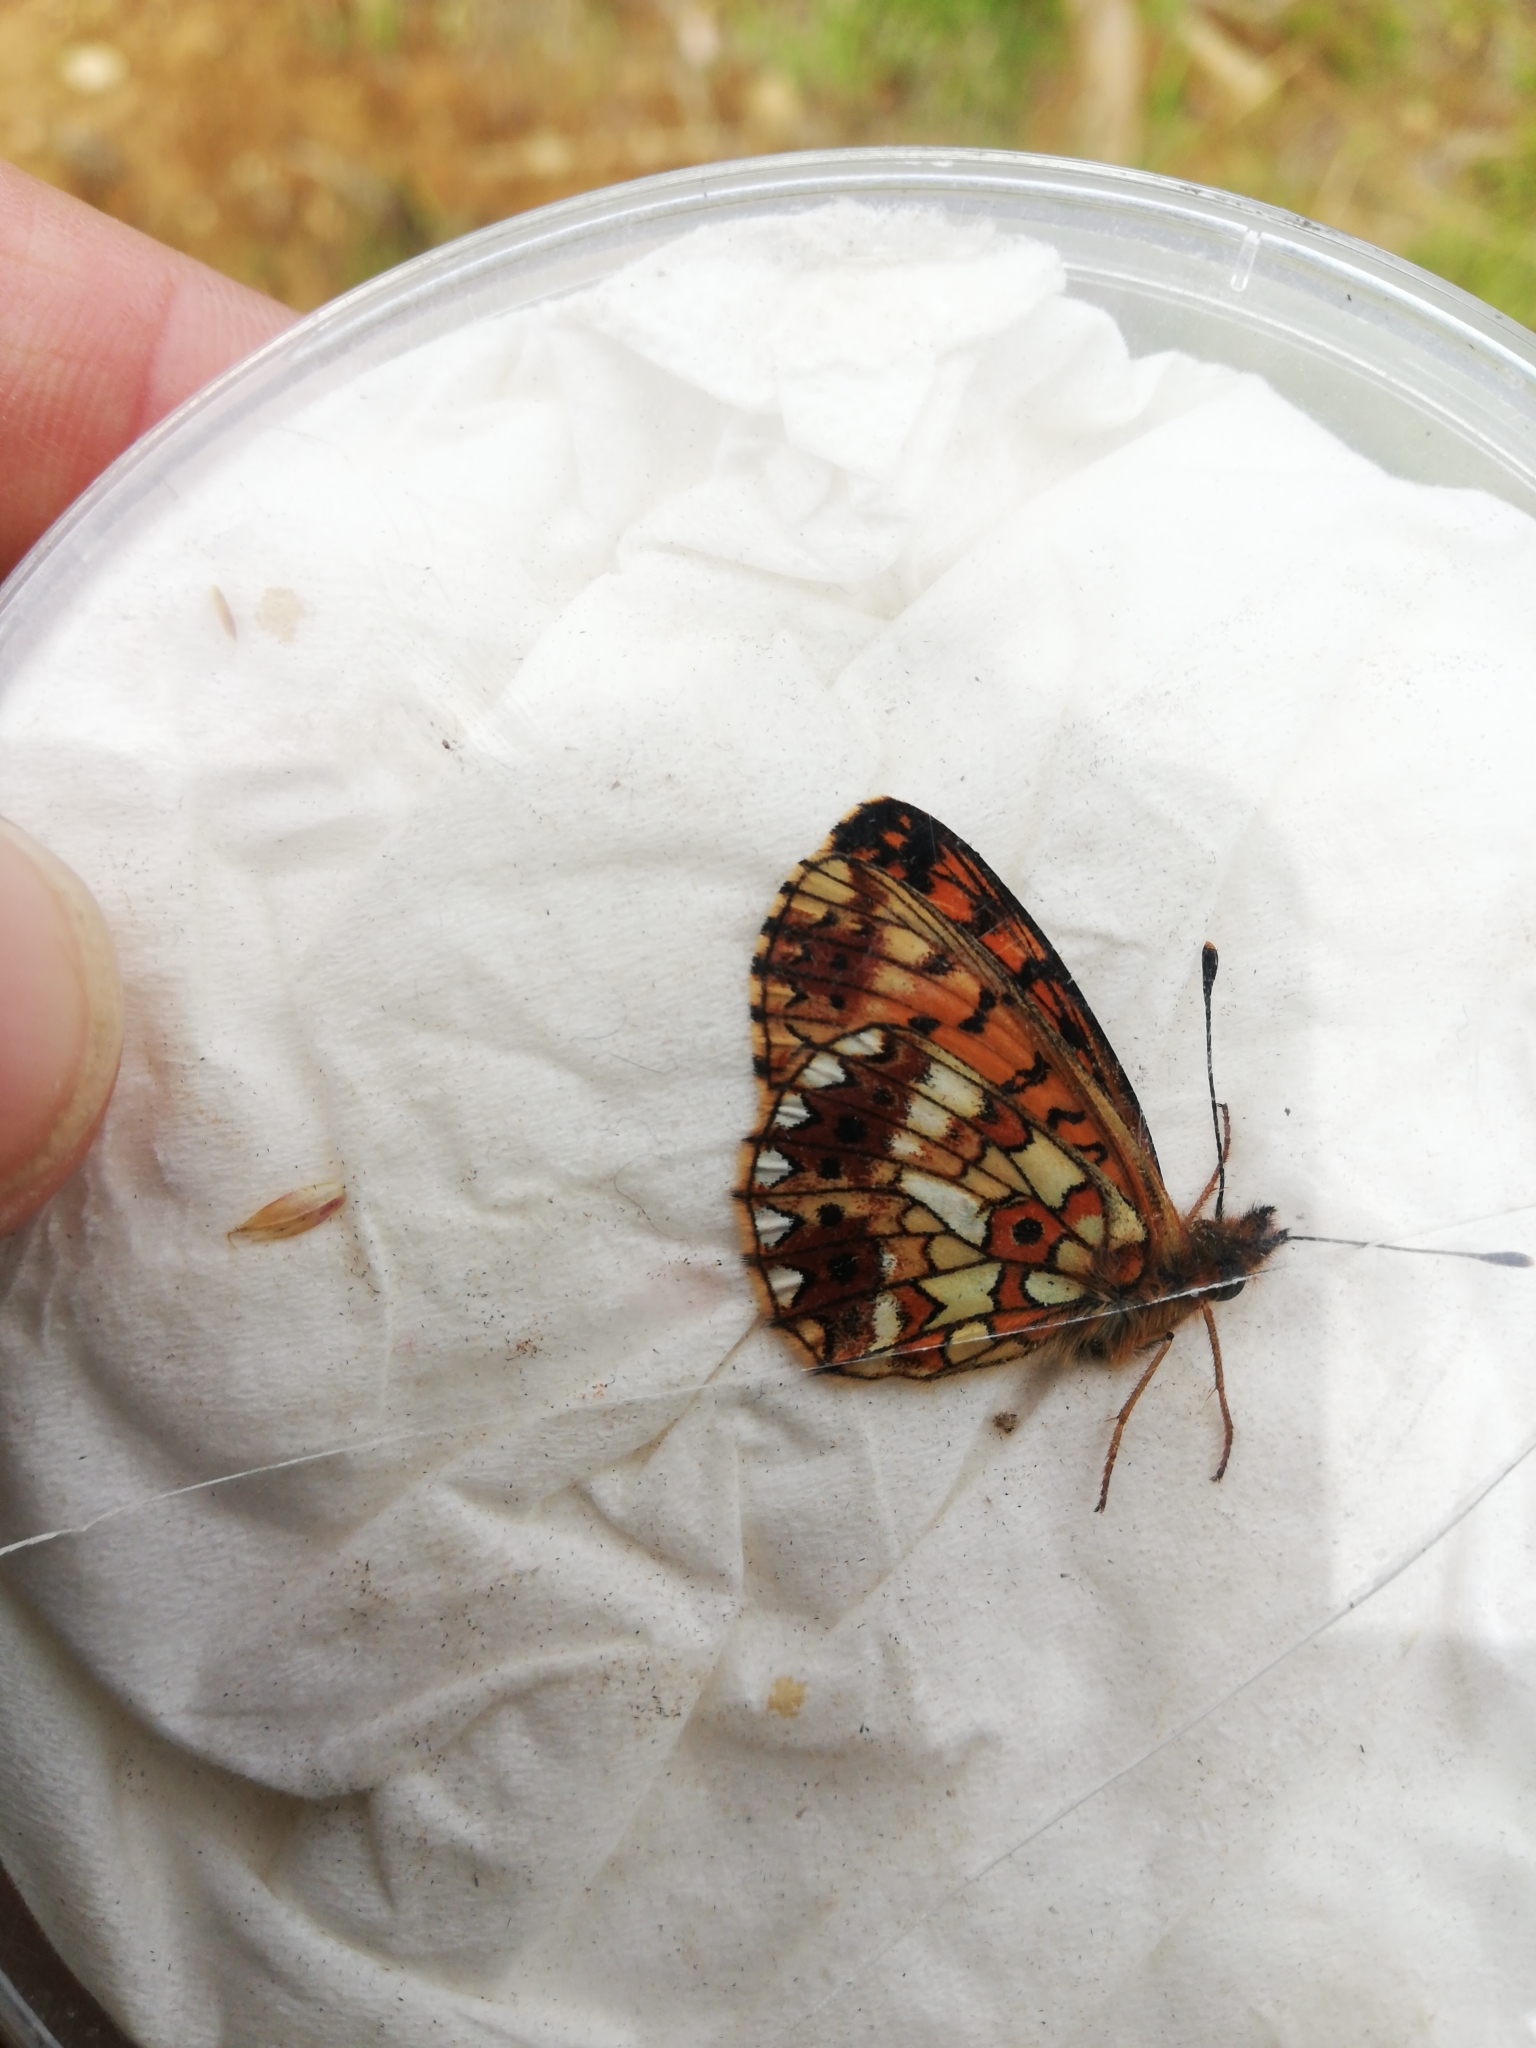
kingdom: Animalia
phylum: Arthropoda
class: Insecta
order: Lepidoptera
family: Nymphalidae
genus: Boloria
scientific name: Boloria selene
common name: Small pearl-bordered fritillary
